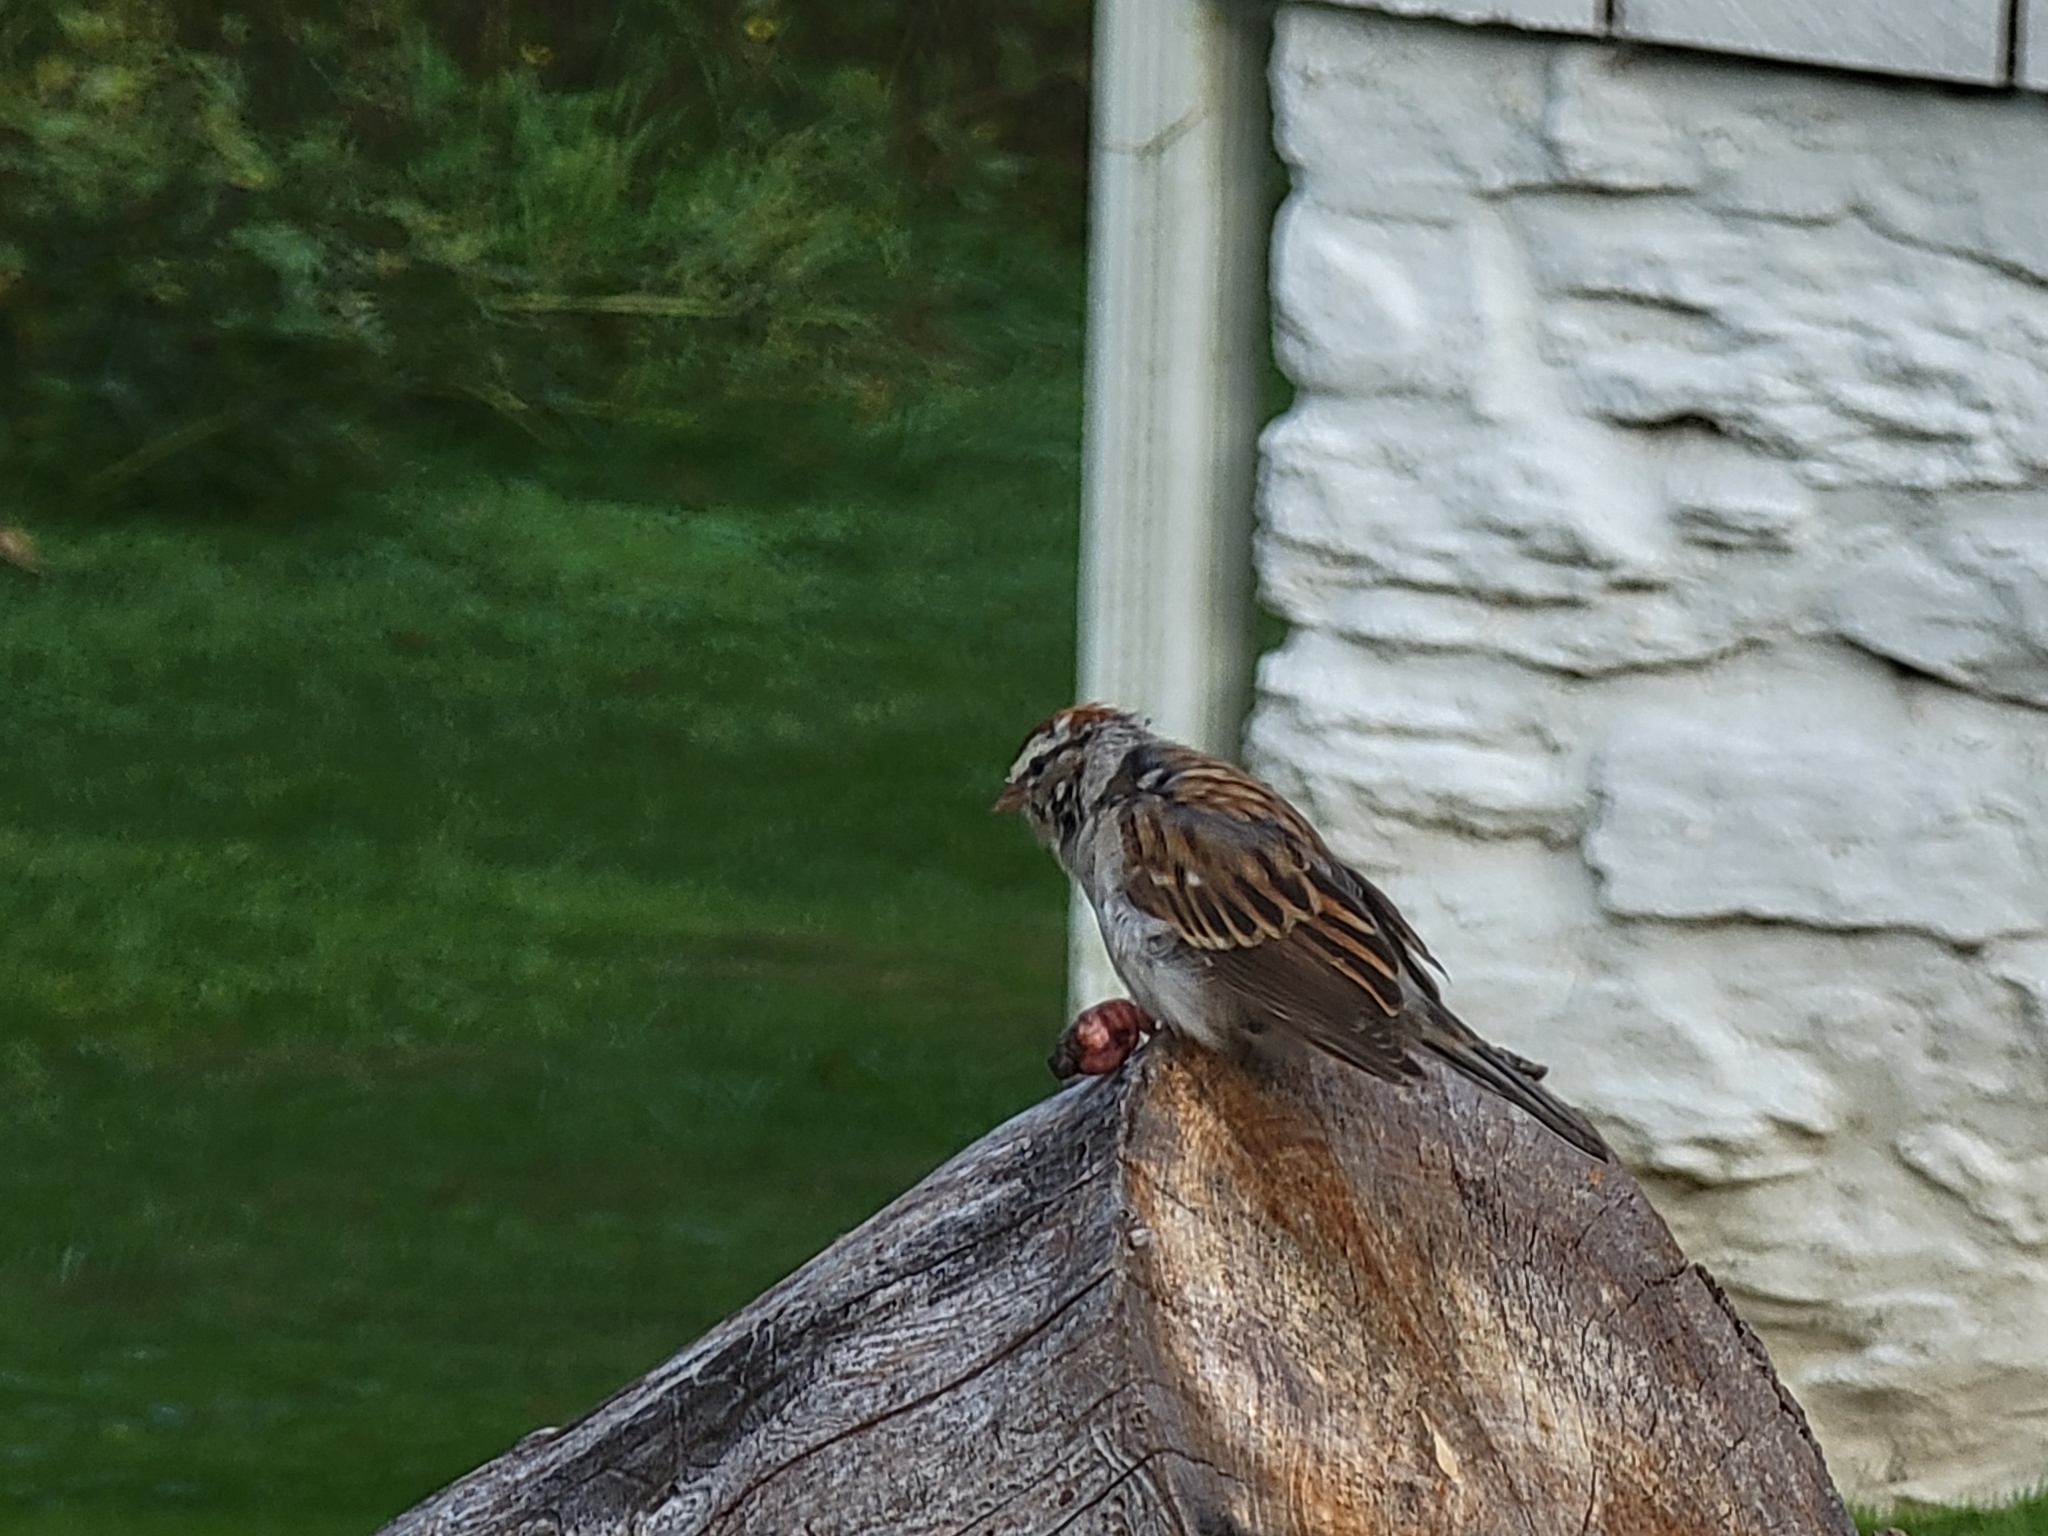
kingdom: Animalia
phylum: Chordata
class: Aves
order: Passeriformes
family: Passerellidae
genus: Spizella
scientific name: Spizella passerina
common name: Chipping sparrow
